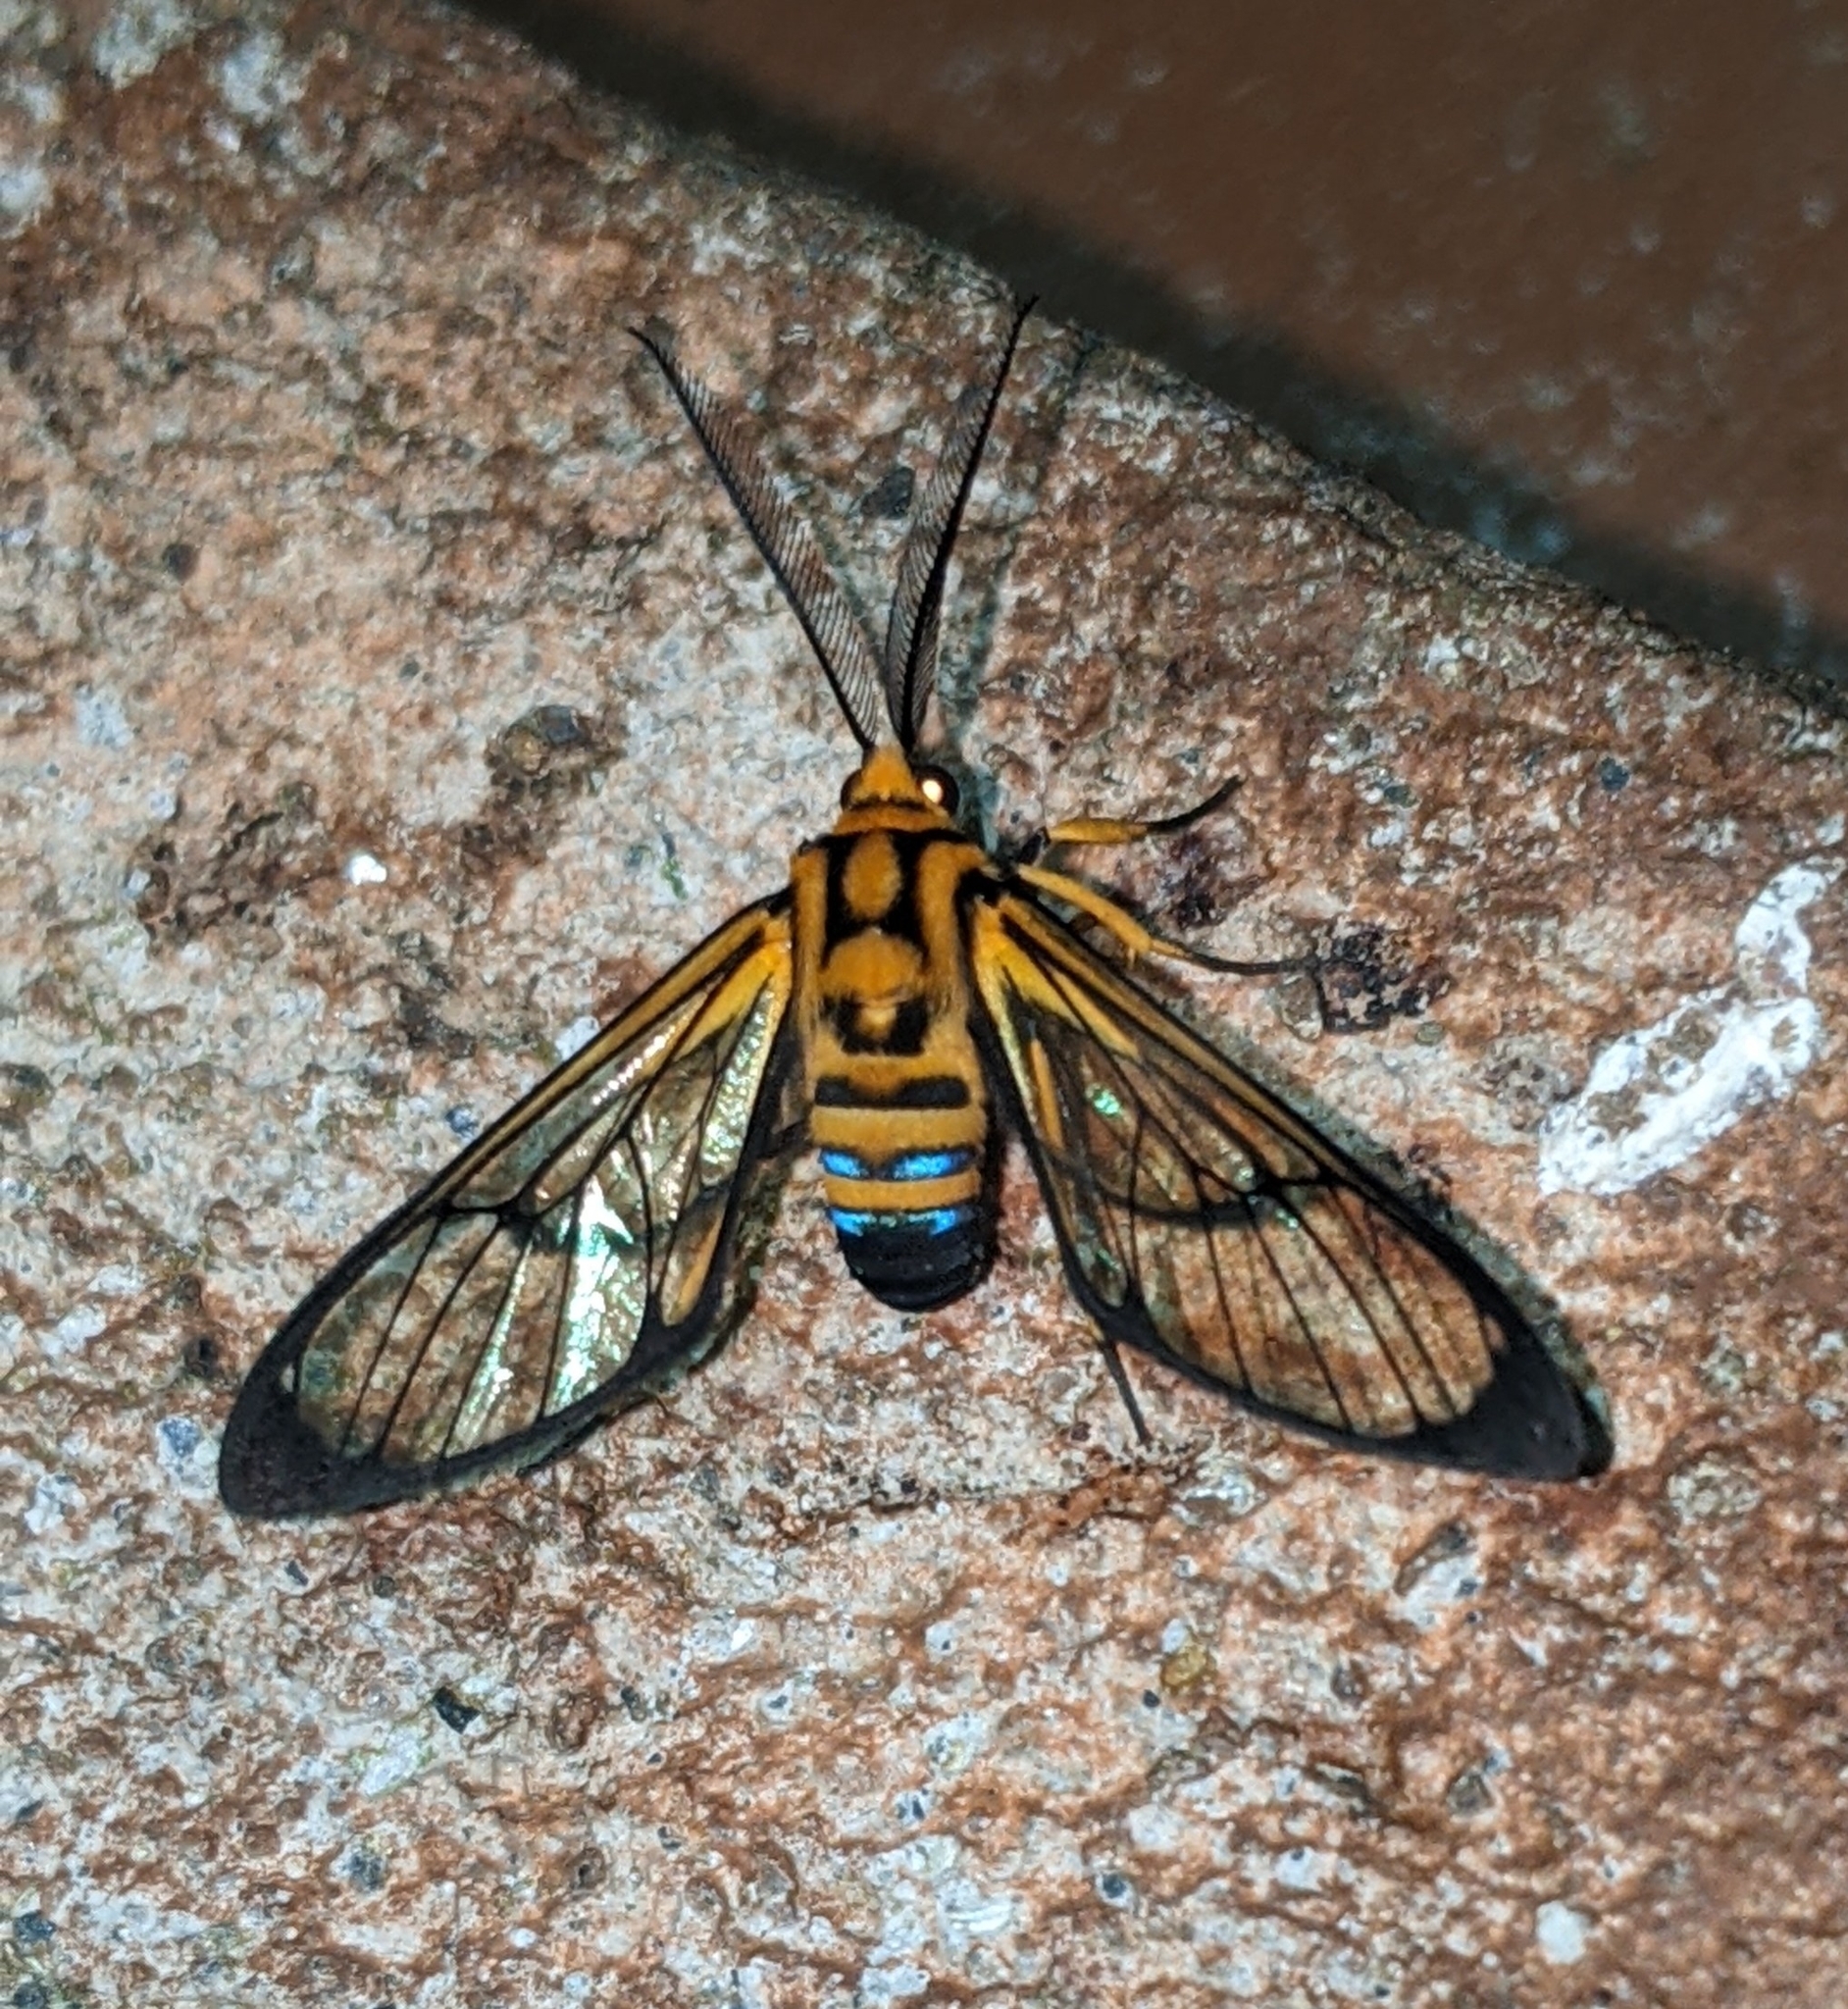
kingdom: Animalia
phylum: Arthropoda
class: Insecta
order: Lepidoptera
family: Erebidae
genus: Mesothen
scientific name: Mesothen nomia
